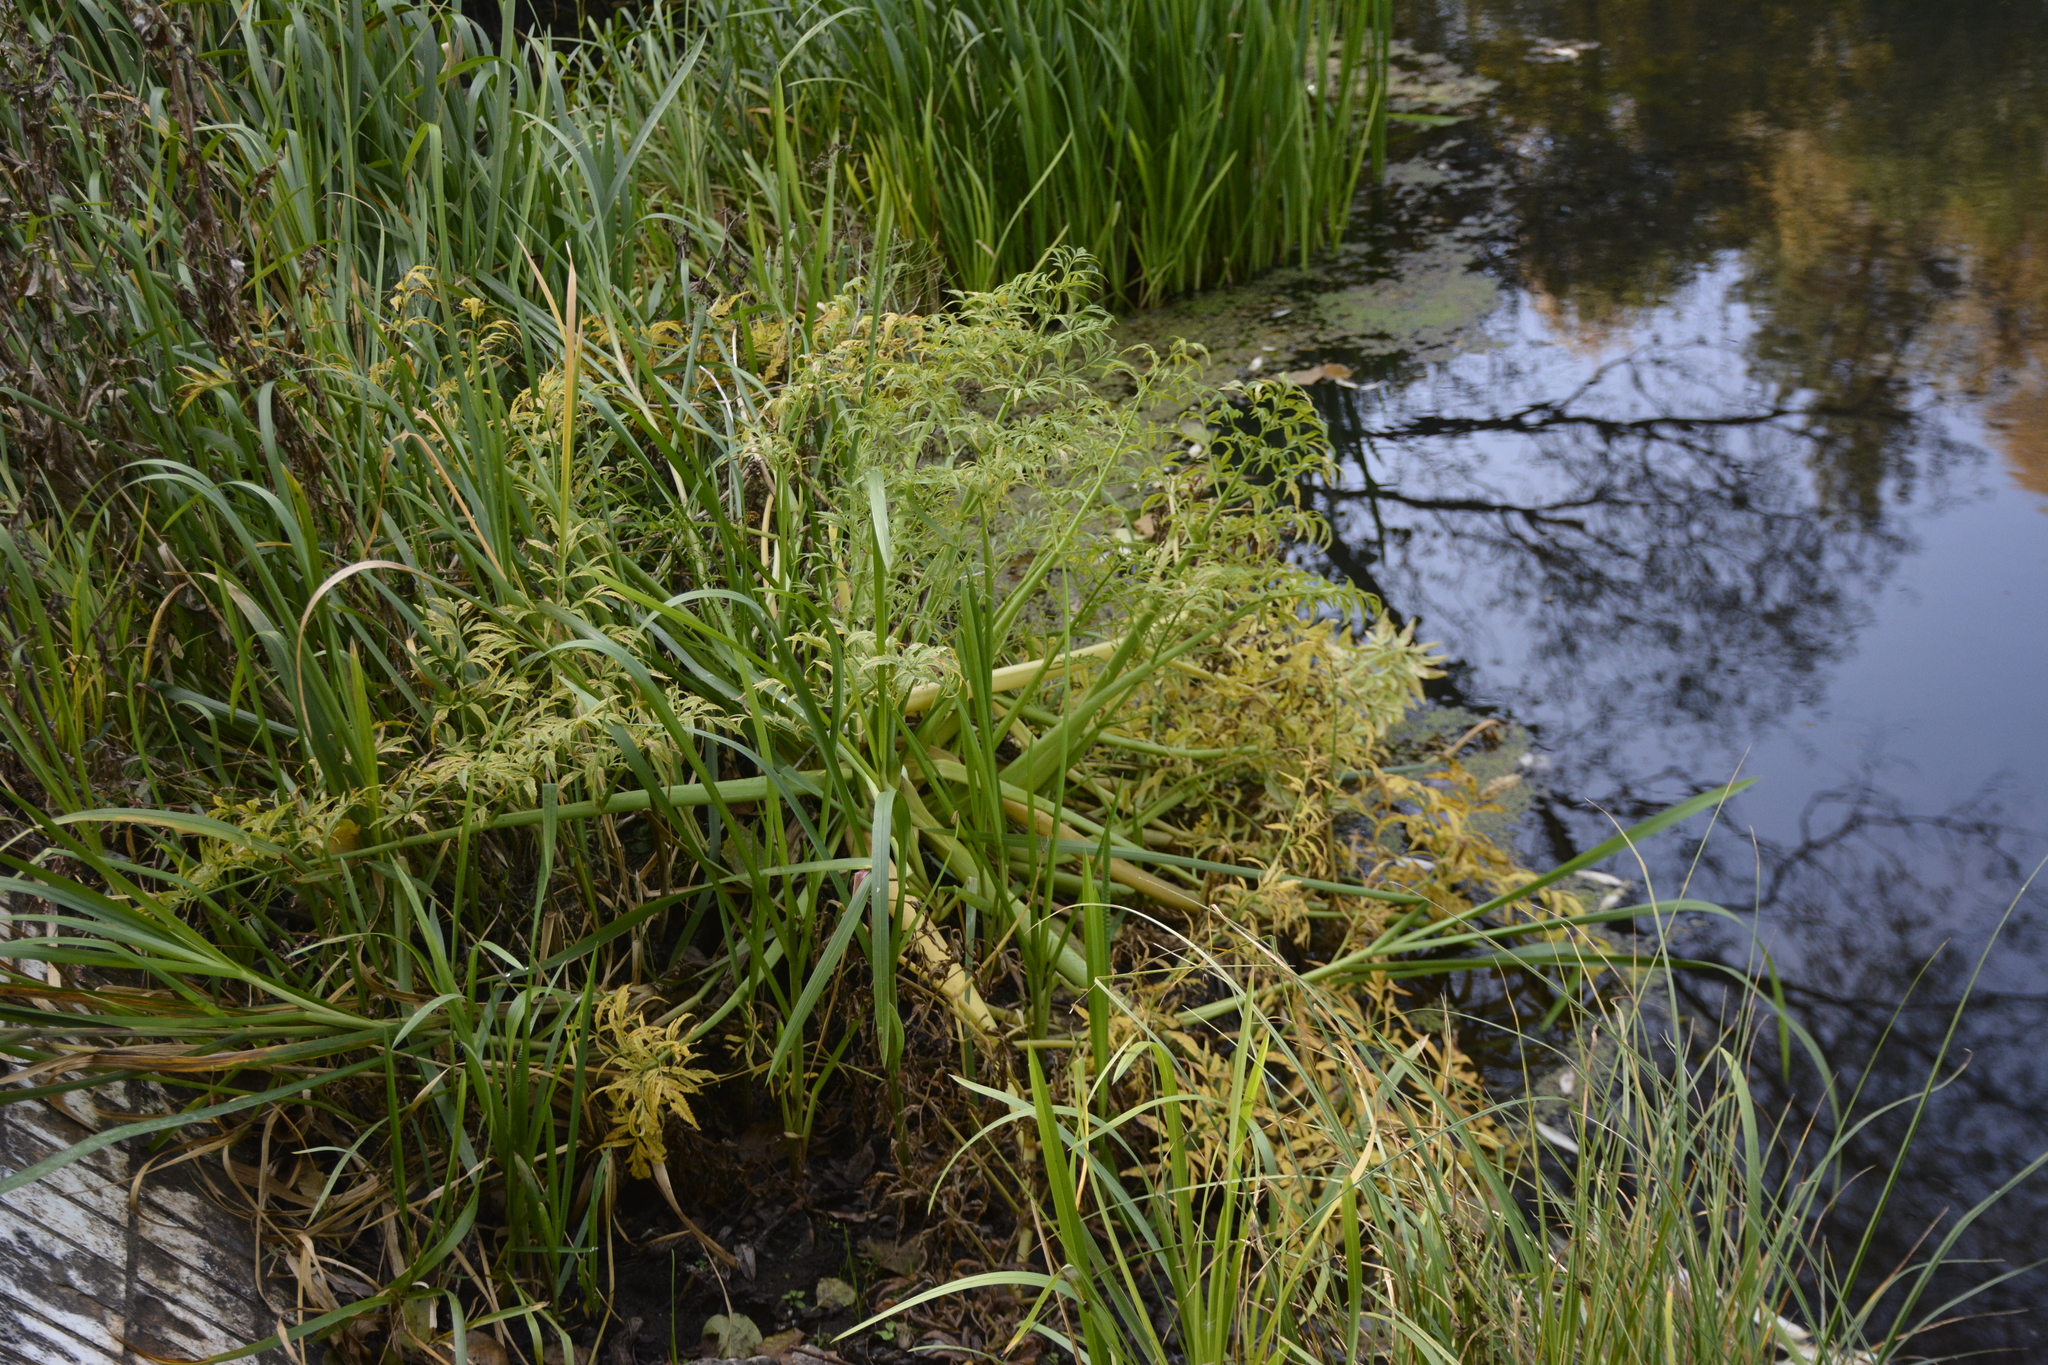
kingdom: Plantae
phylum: Tracheophyta
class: Magnoliopsida
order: Apiales
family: Apiaceae
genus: Cicuta
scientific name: Cicuta virosa
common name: Cowbane
